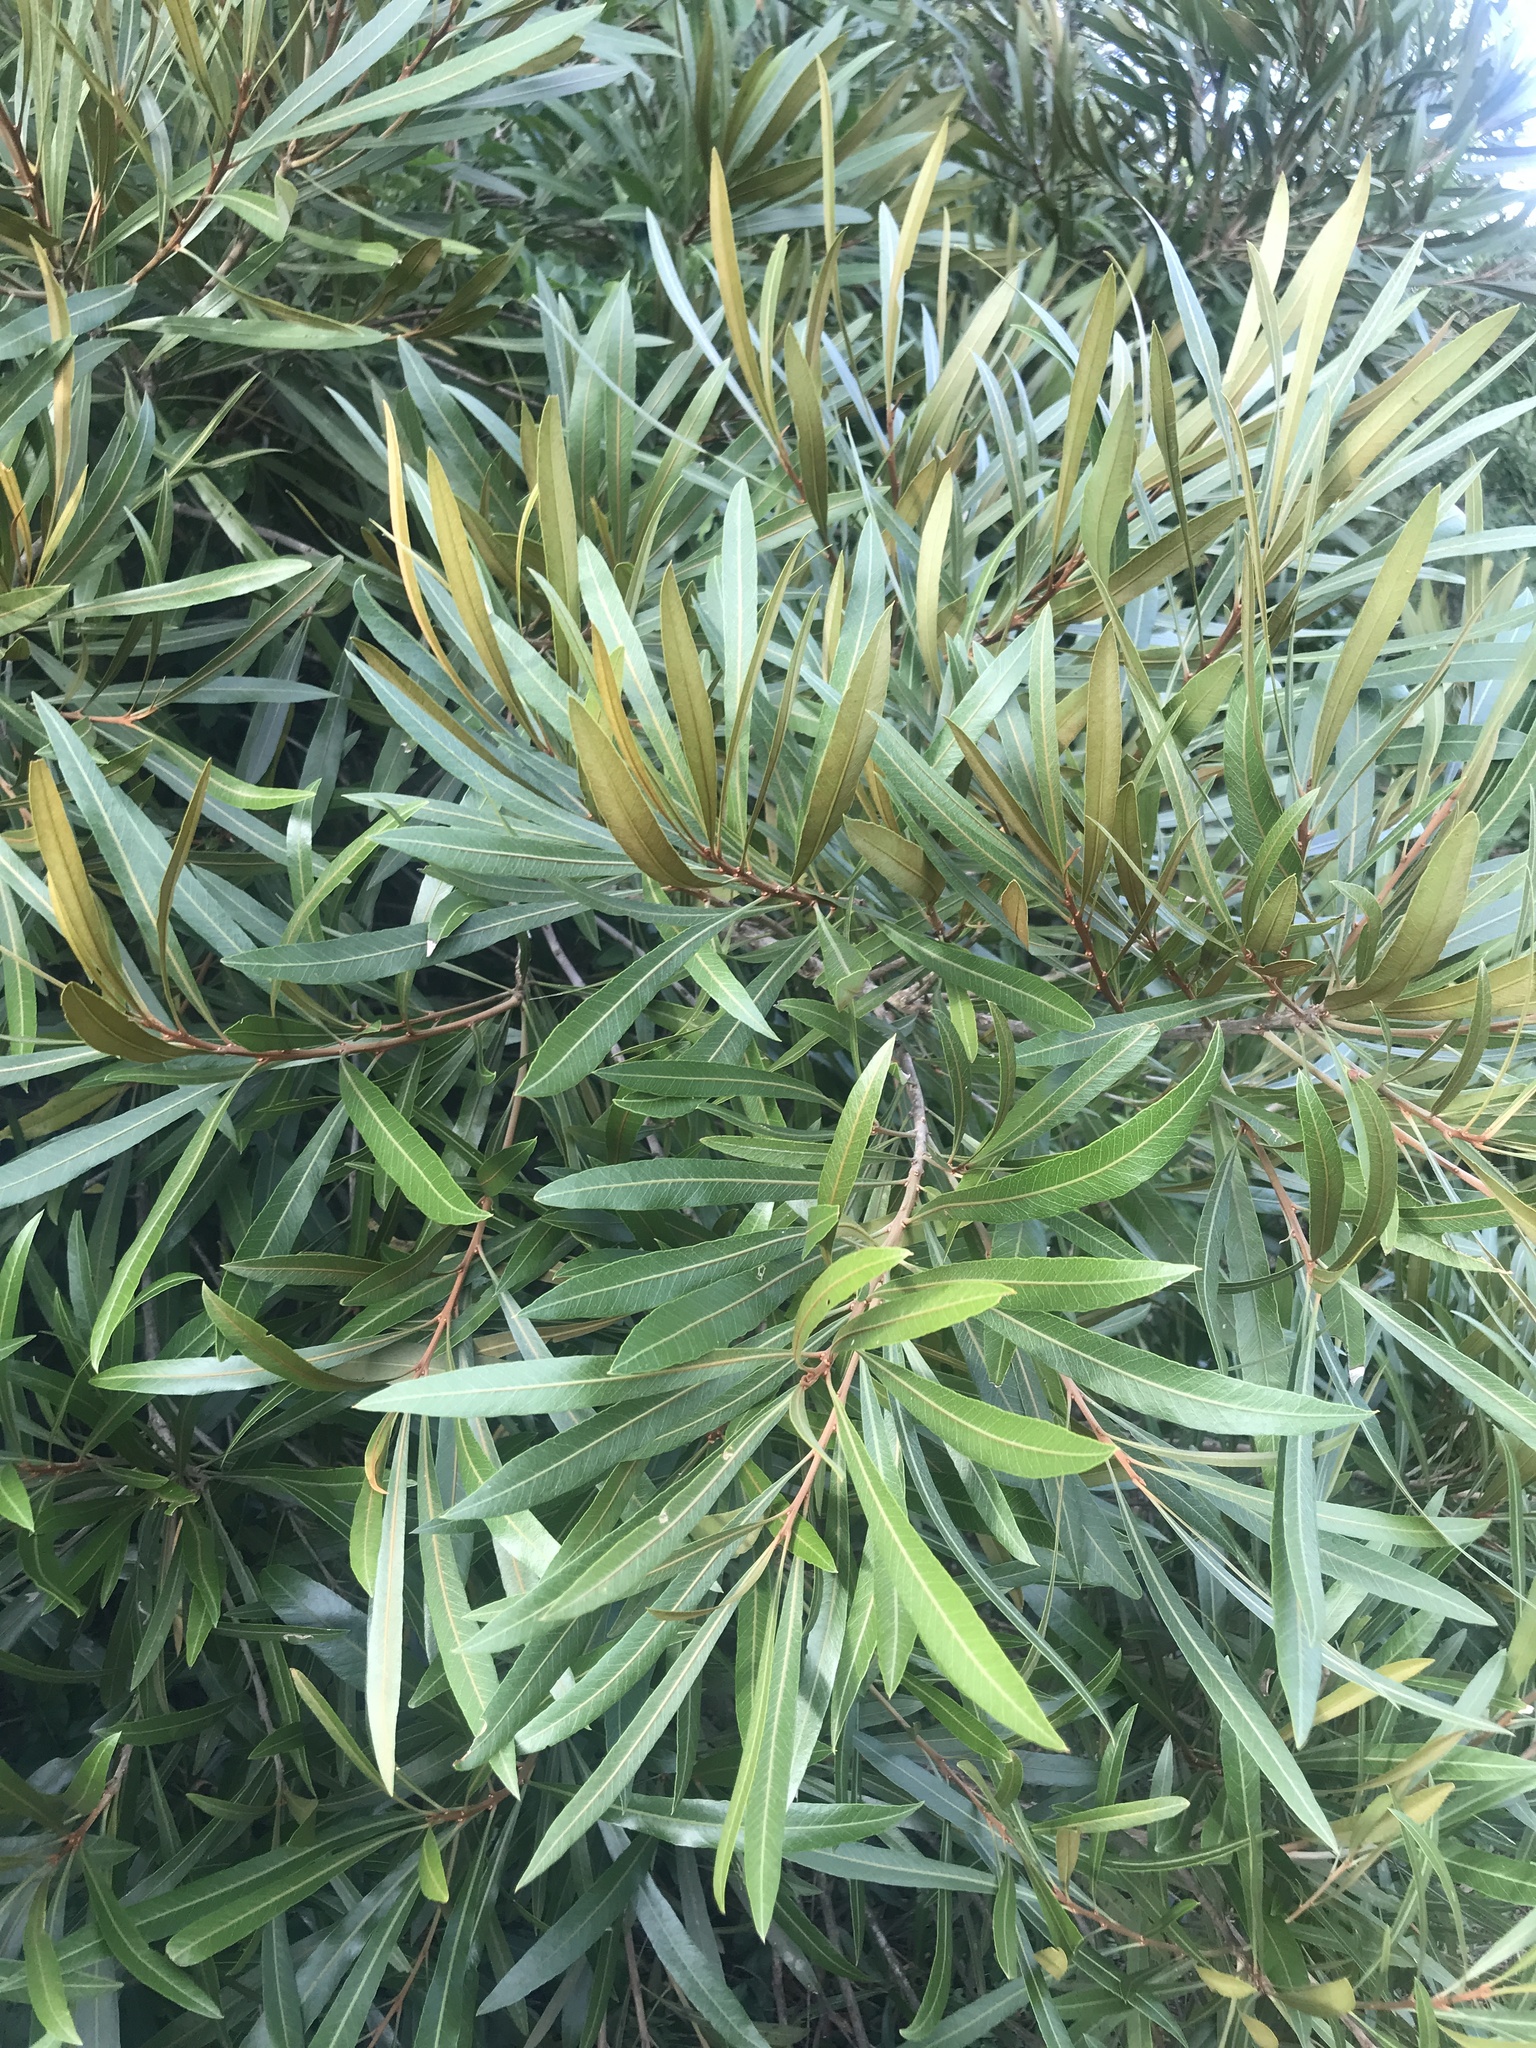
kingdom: Plantae
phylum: Tracheophyta
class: Magnoliopsida
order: Ericales
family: Sapotaceae
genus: Labatia
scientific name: Labatia salicifolia
